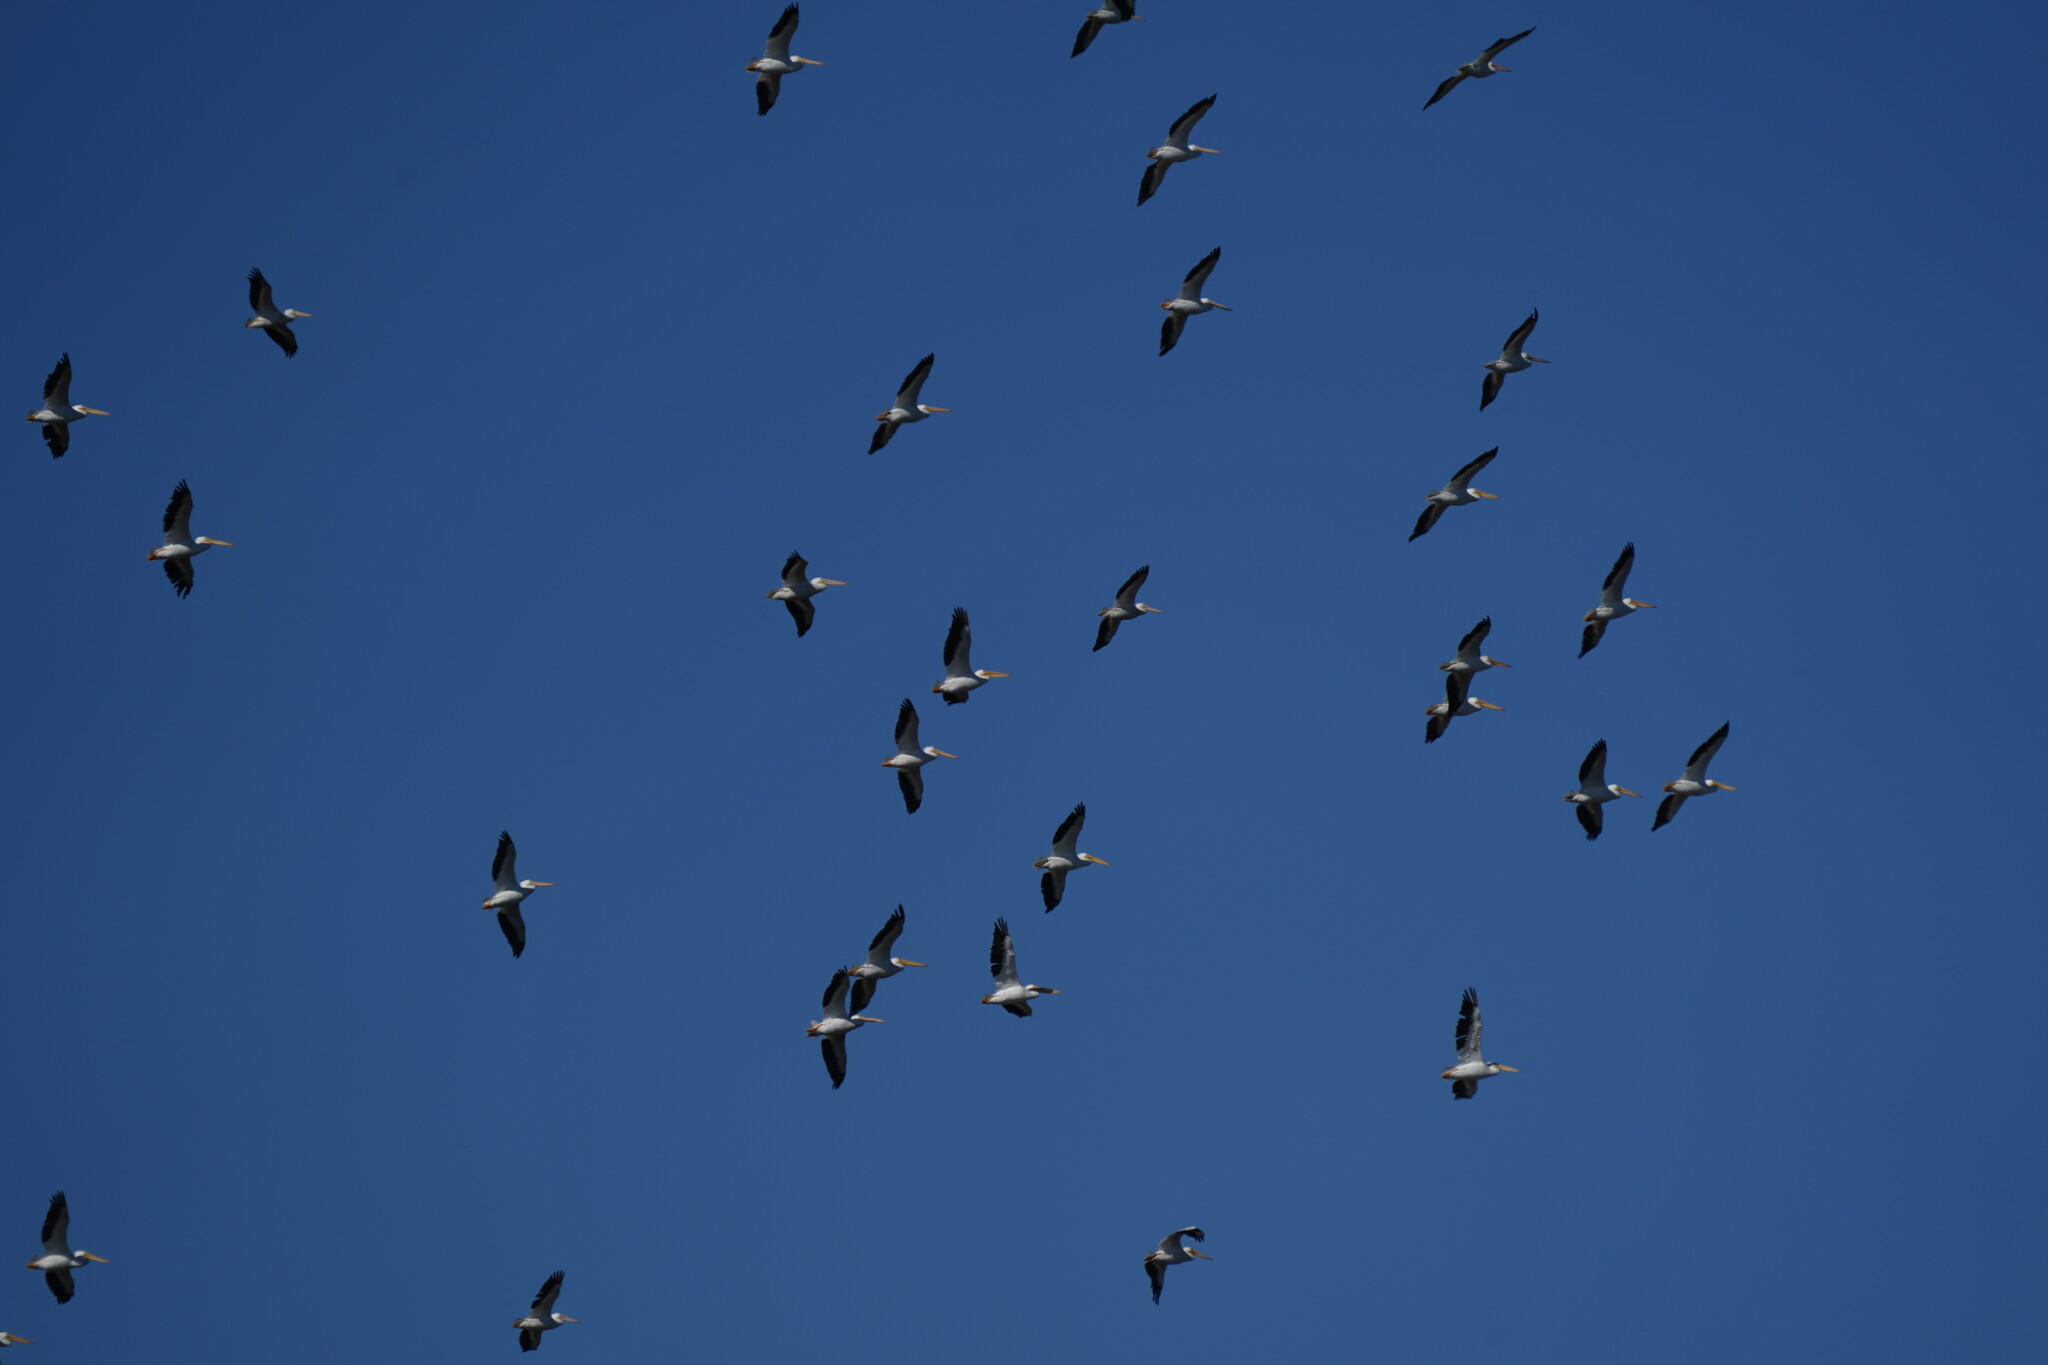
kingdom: Animalia
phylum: Chordata
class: Aves
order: Pelecaniformes
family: Pelecanidae
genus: Pelecanus
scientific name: Pelecanus erythrorhynchos
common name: American white pelican
